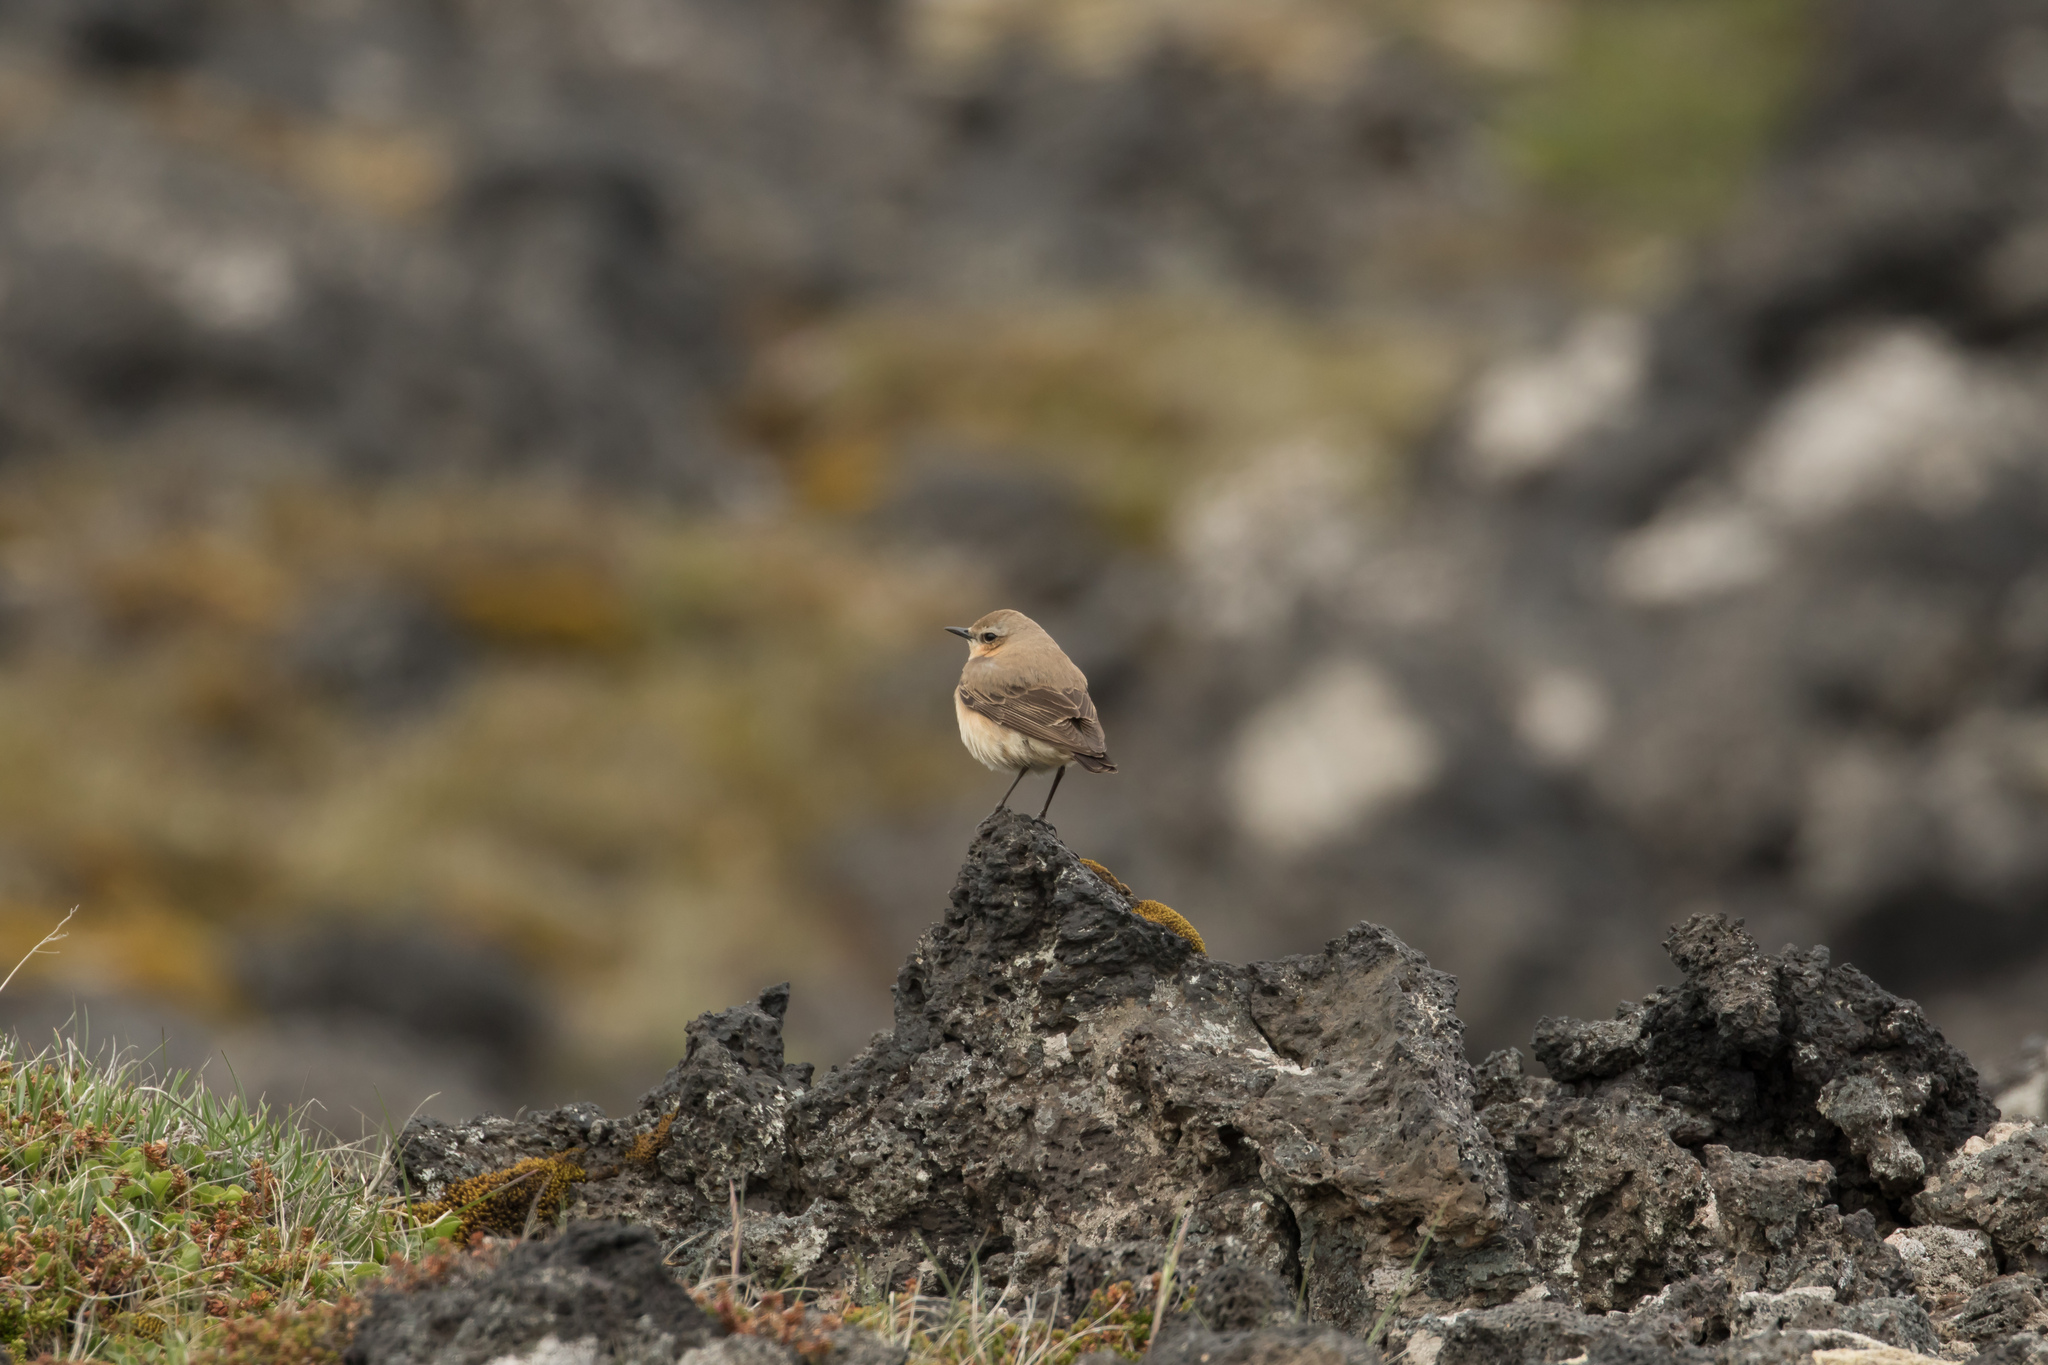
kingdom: Animalia
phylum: Chordata
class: Aves
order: Passeriformes
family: Muscicapidae
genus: Oenanthe
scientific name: Oenanthe oenanthe
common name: Northern wheatear
